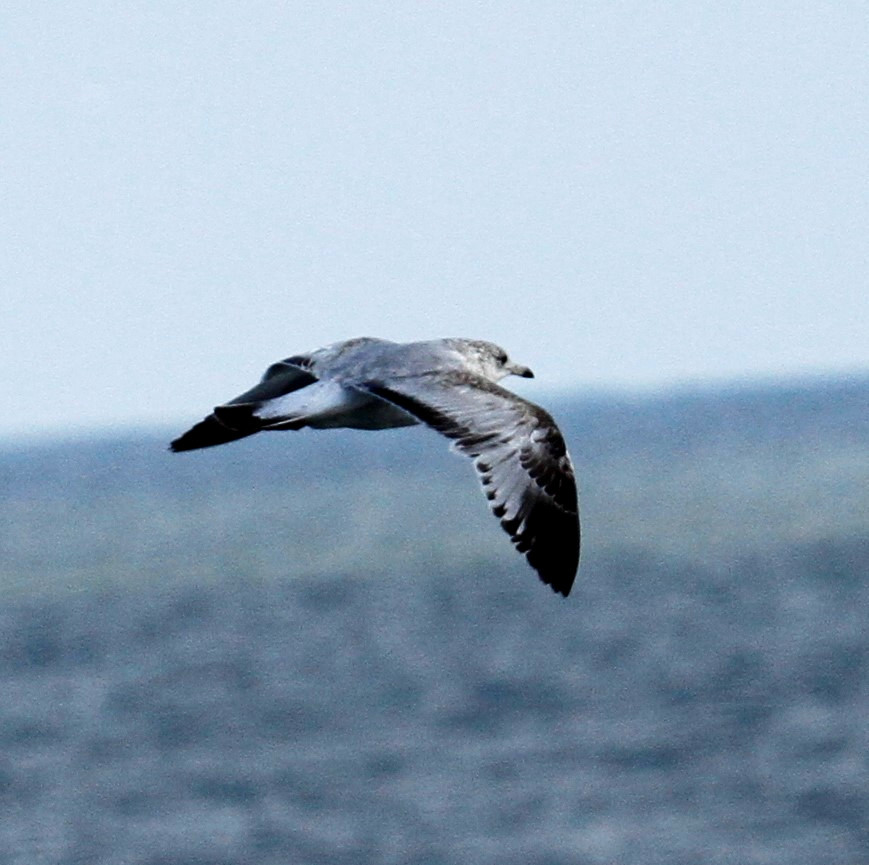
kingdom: Animalia
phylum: Chordata
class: Aves
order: Charadriiformes
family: Laridae
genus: Larus
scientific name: Larus delawarensis
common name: Ring-billed gull
